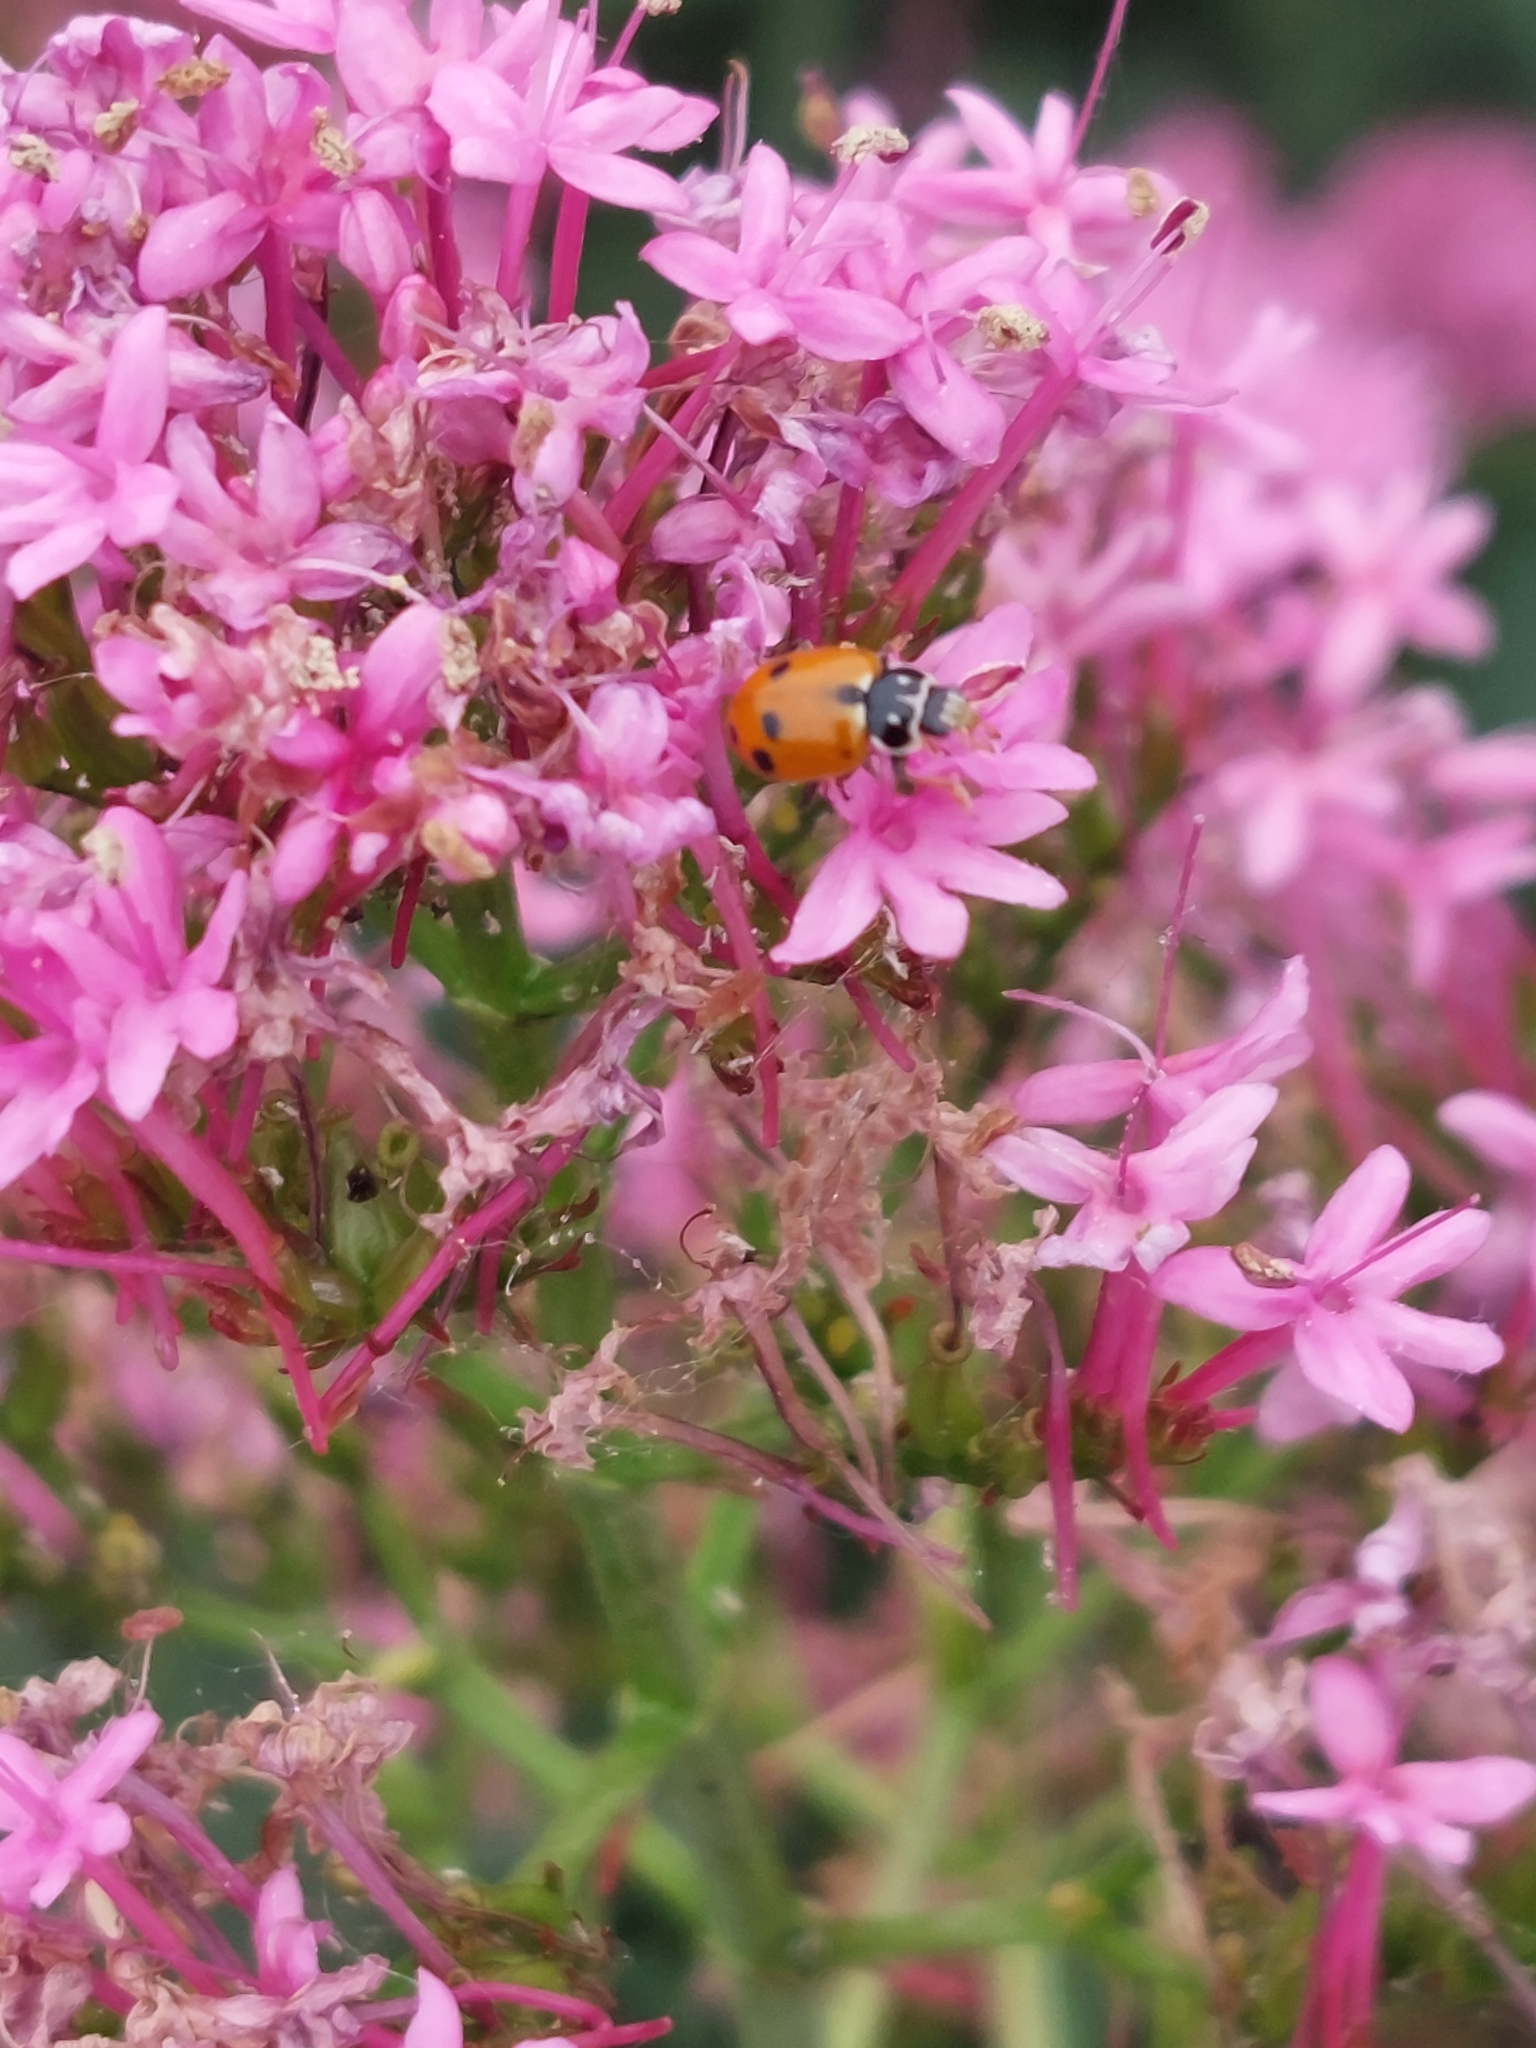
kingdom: Animalia
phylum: Arthropoda
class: Insecta
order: Coleoptera
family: Coccinellidae
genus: Hippodamia
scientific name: Hippodamia variegata
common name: Ladybird beetle
